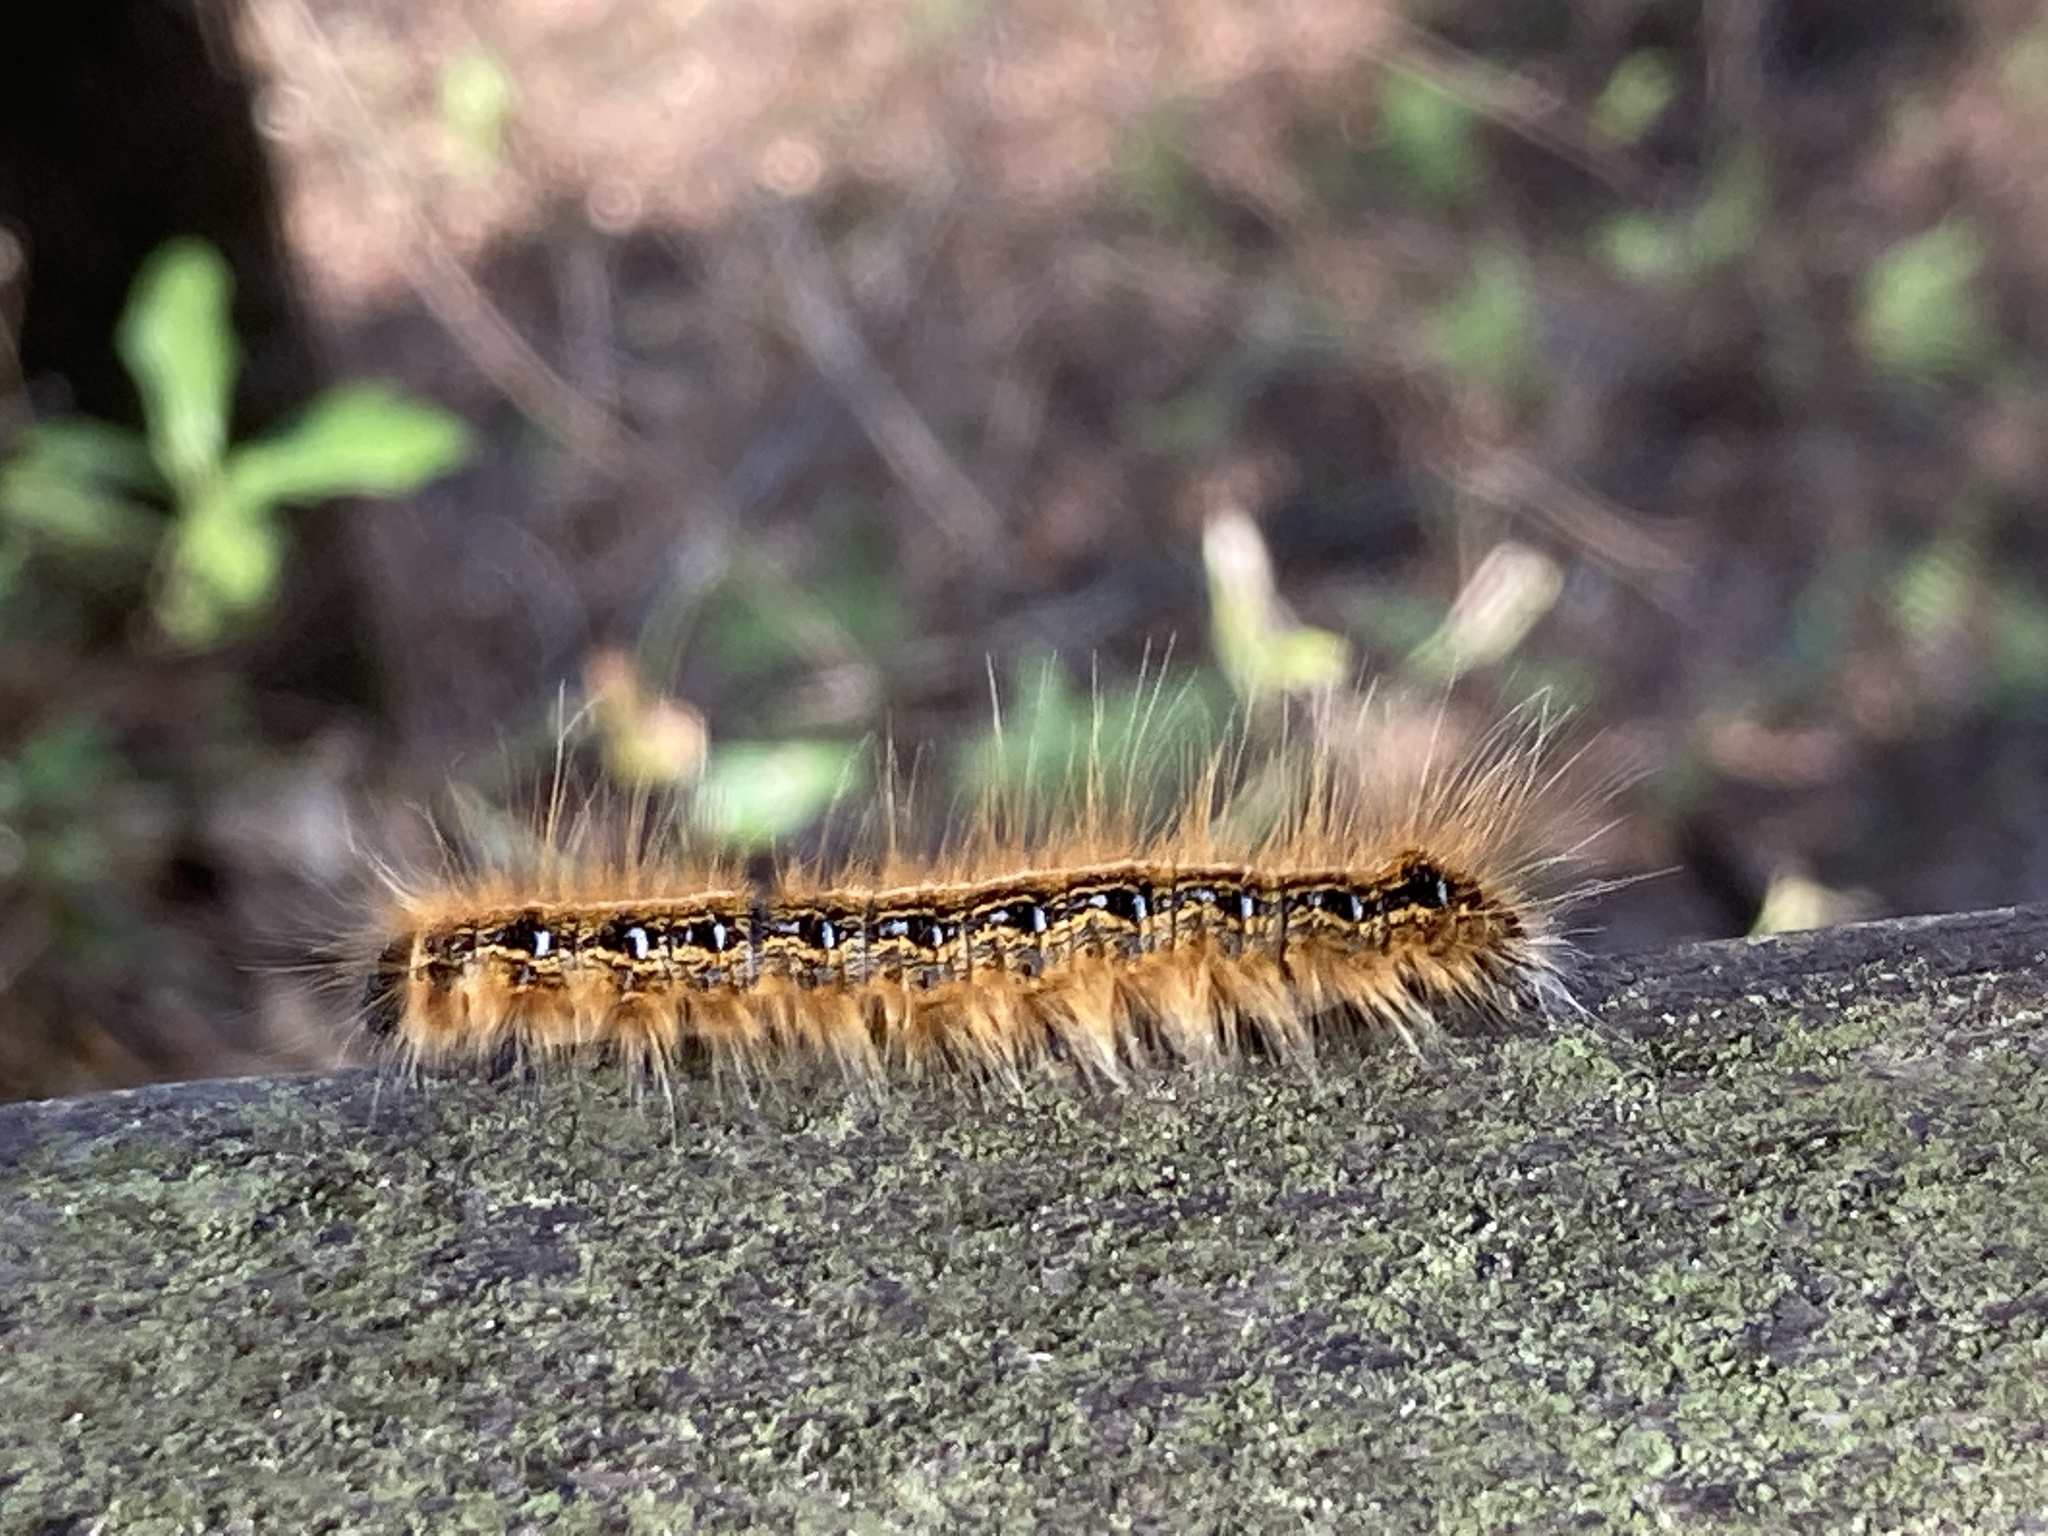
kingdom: Animalia
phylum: Arthropoda
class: Insecta
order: Lepidoptera
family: Lasiocampidae
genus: Malacosoma
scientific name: Malacosoma americana
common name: Eastern tent caterpillar moth
